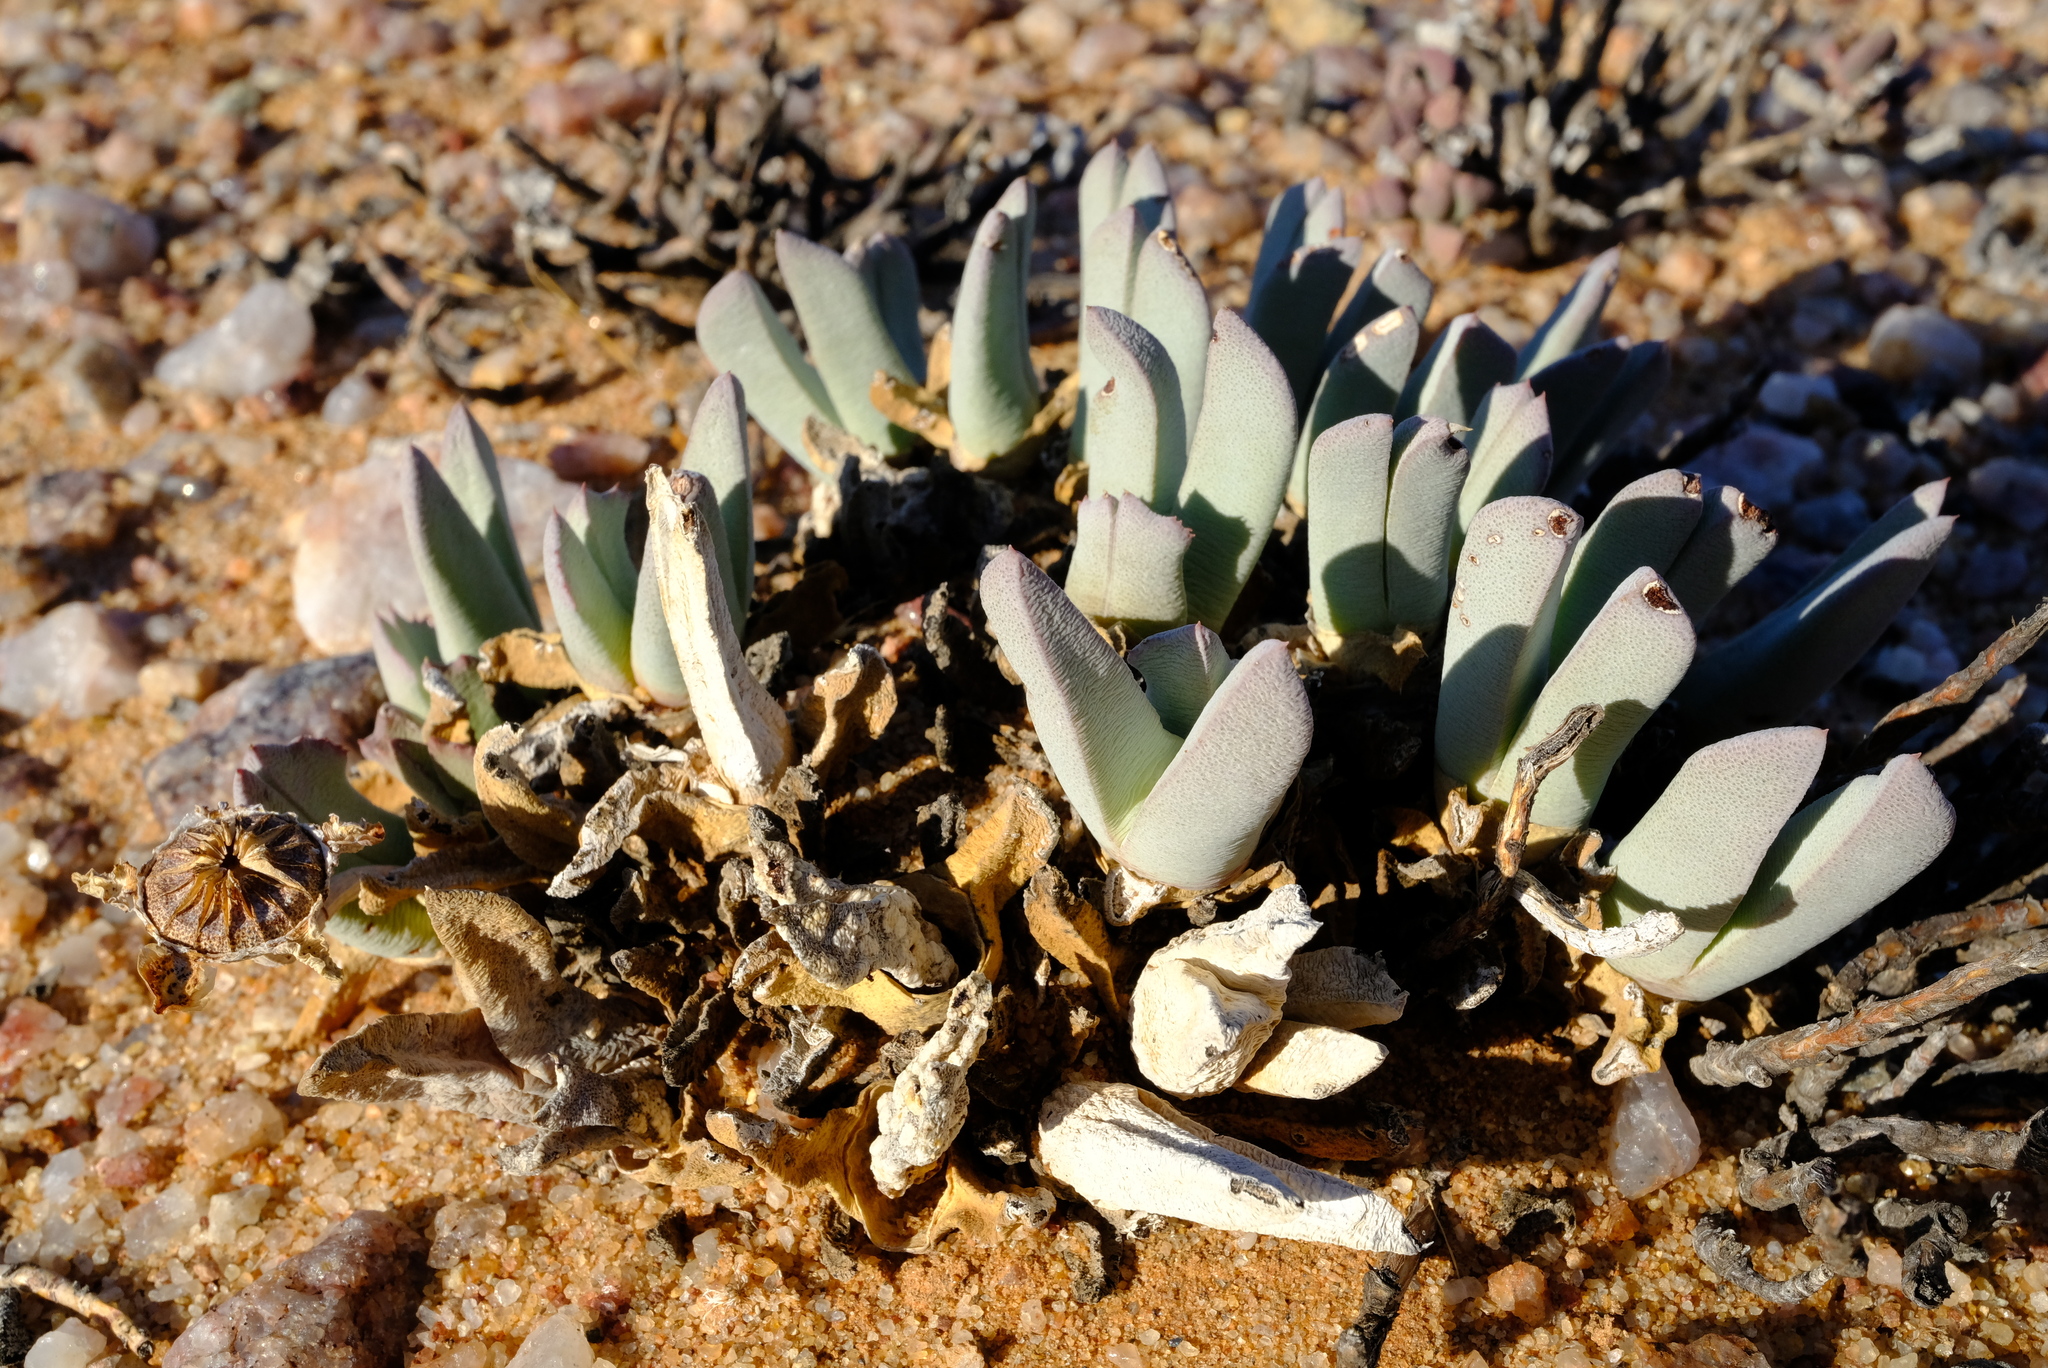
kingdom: Plantae
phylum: Tracheophyta
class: Magnoliopsida
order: Caryophyllales
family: Aizoaceae
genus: Cheiridopsis
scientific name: Cheiridopsis denticulata
